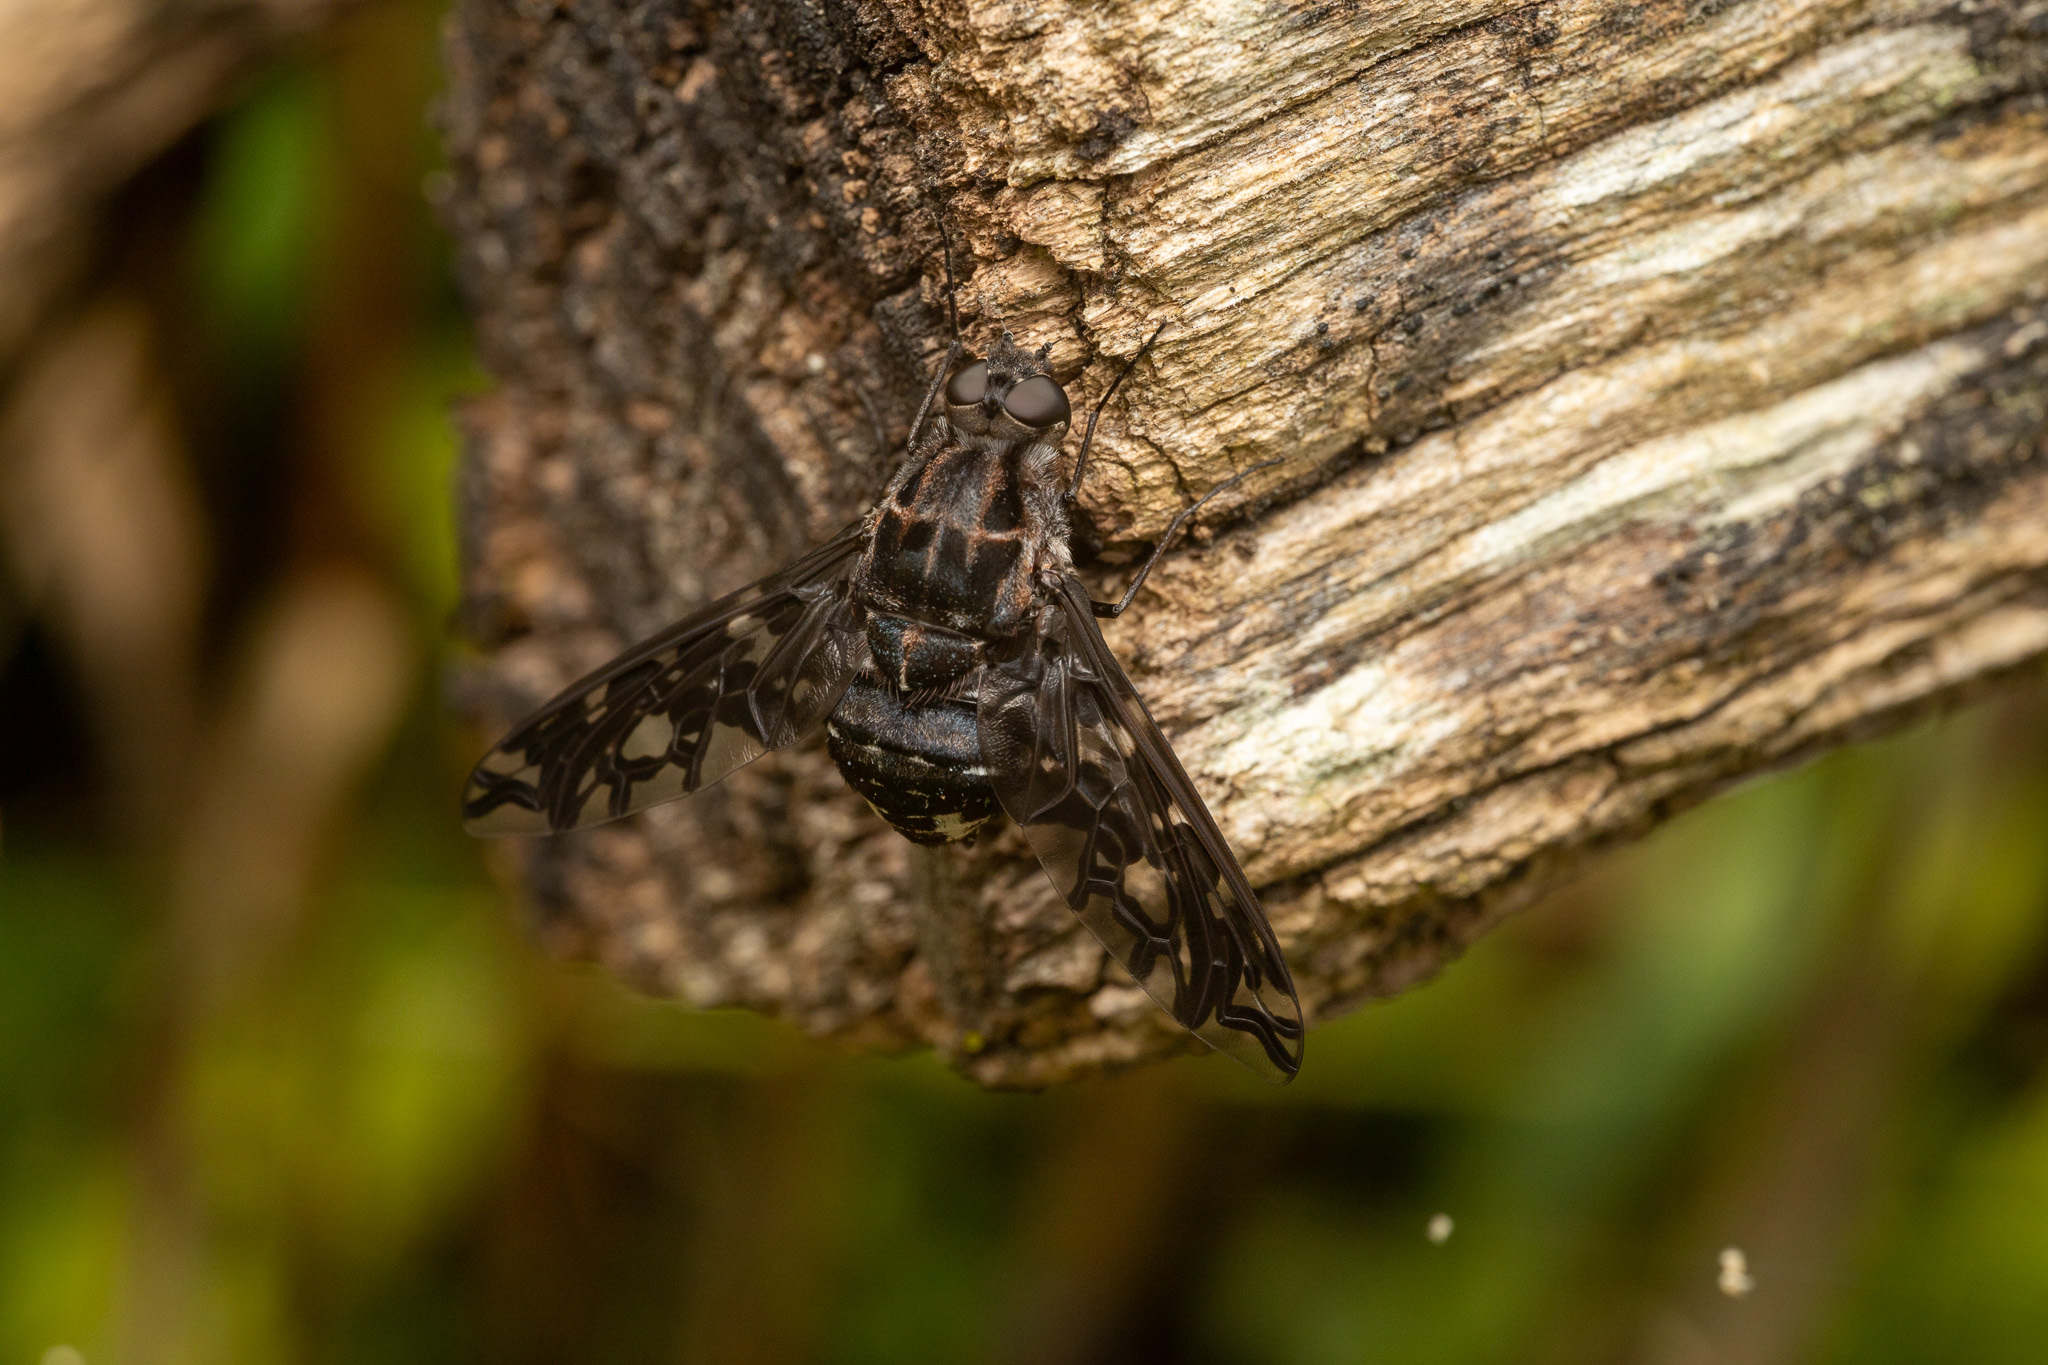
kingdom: Animalia
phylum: Arthropoda
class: Insecta
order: Diptera
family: Bombyliidae
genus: Xenox
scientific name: Xenox tigrinus
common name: Tiger bee fly
